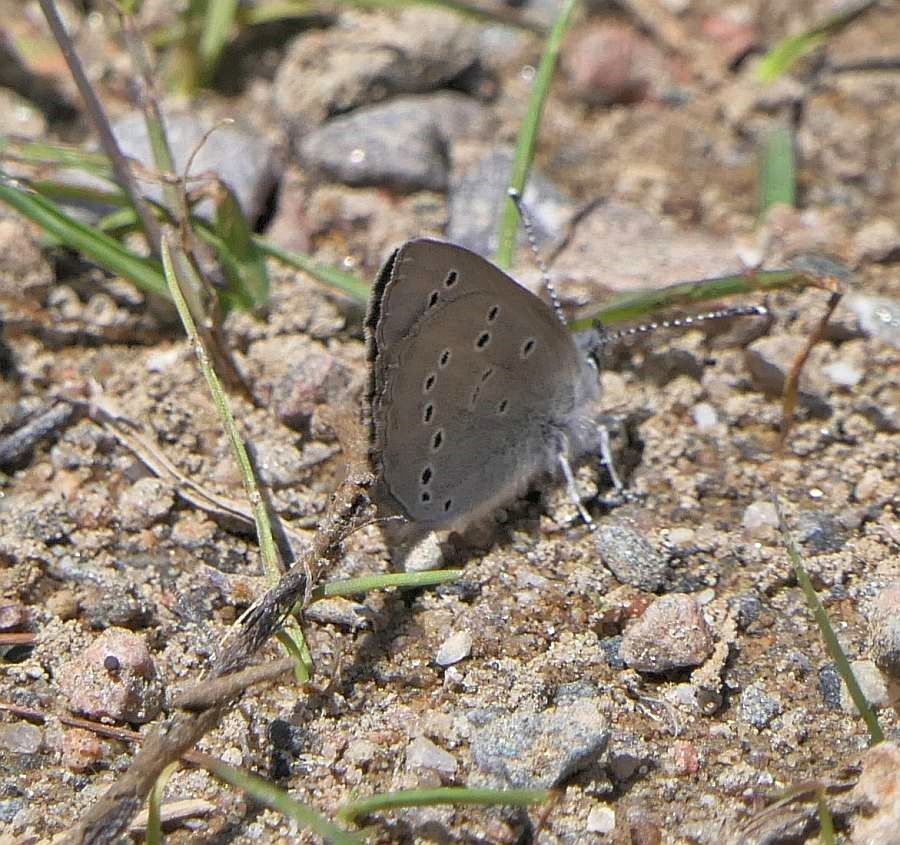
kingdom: Animalia
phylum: Arthropoda
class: Insecta
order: Lepidoptera
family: Lycaenidae
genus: Glaucopsyche
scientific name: Glaucopsyche lygdamus
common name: Silvery blue
